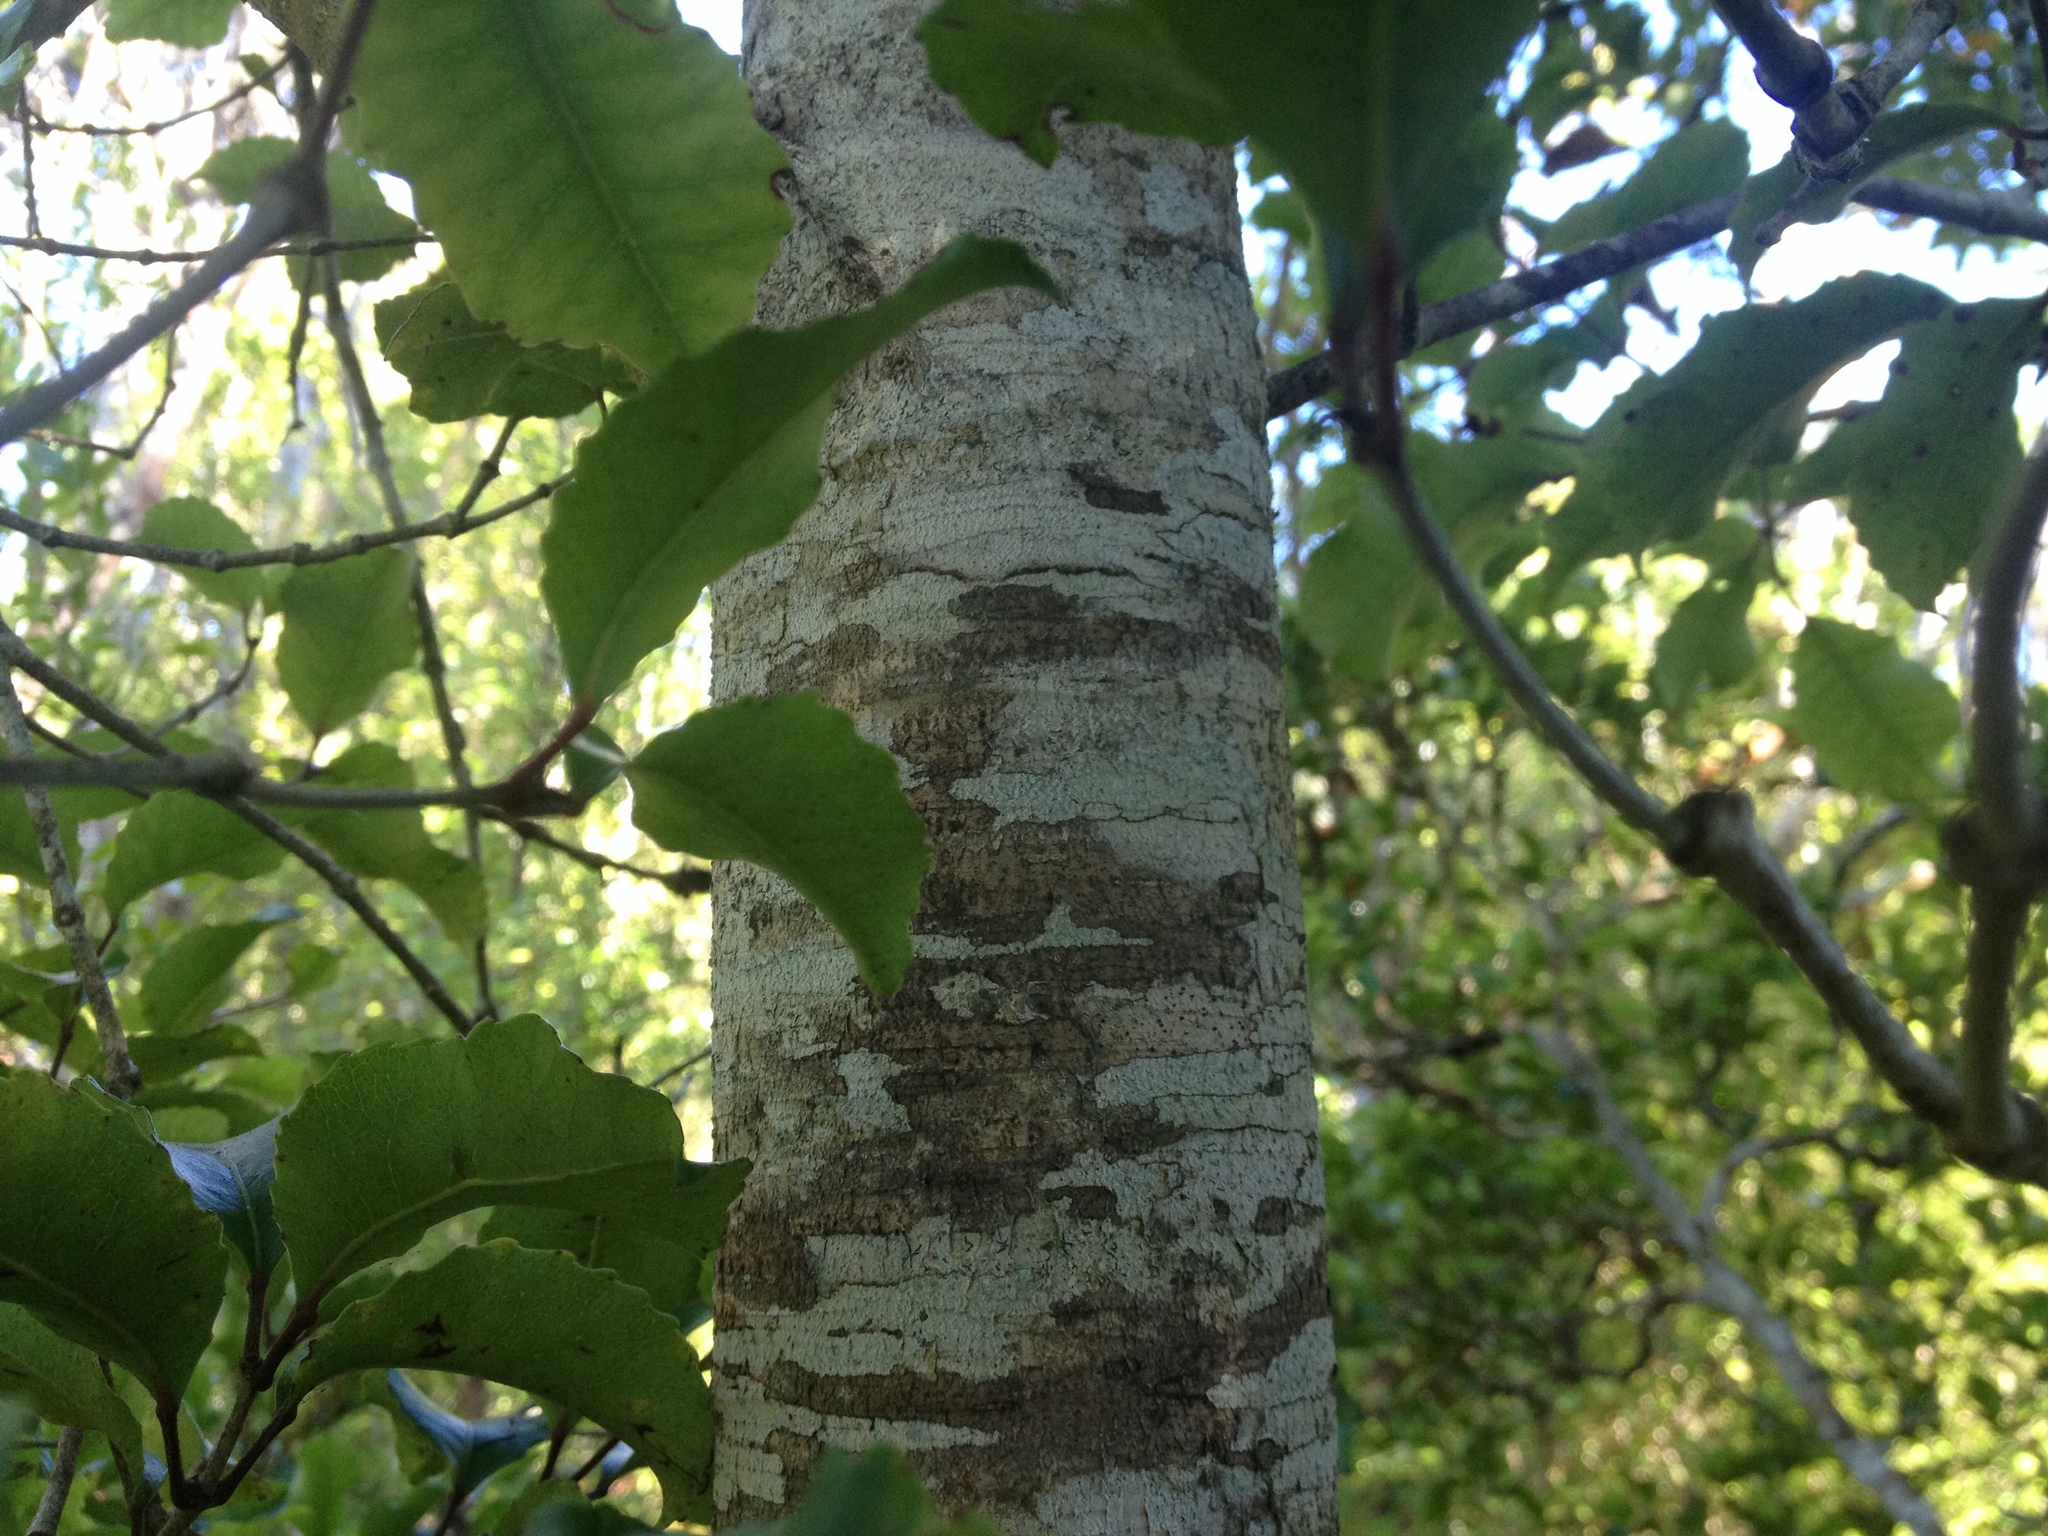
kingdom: Plantae
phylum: Tracheophyta
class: Magnoliopsida
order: Oxalidales
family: Cunoniaceae
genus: Pterophylla
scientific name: Pterophylla racemosa
